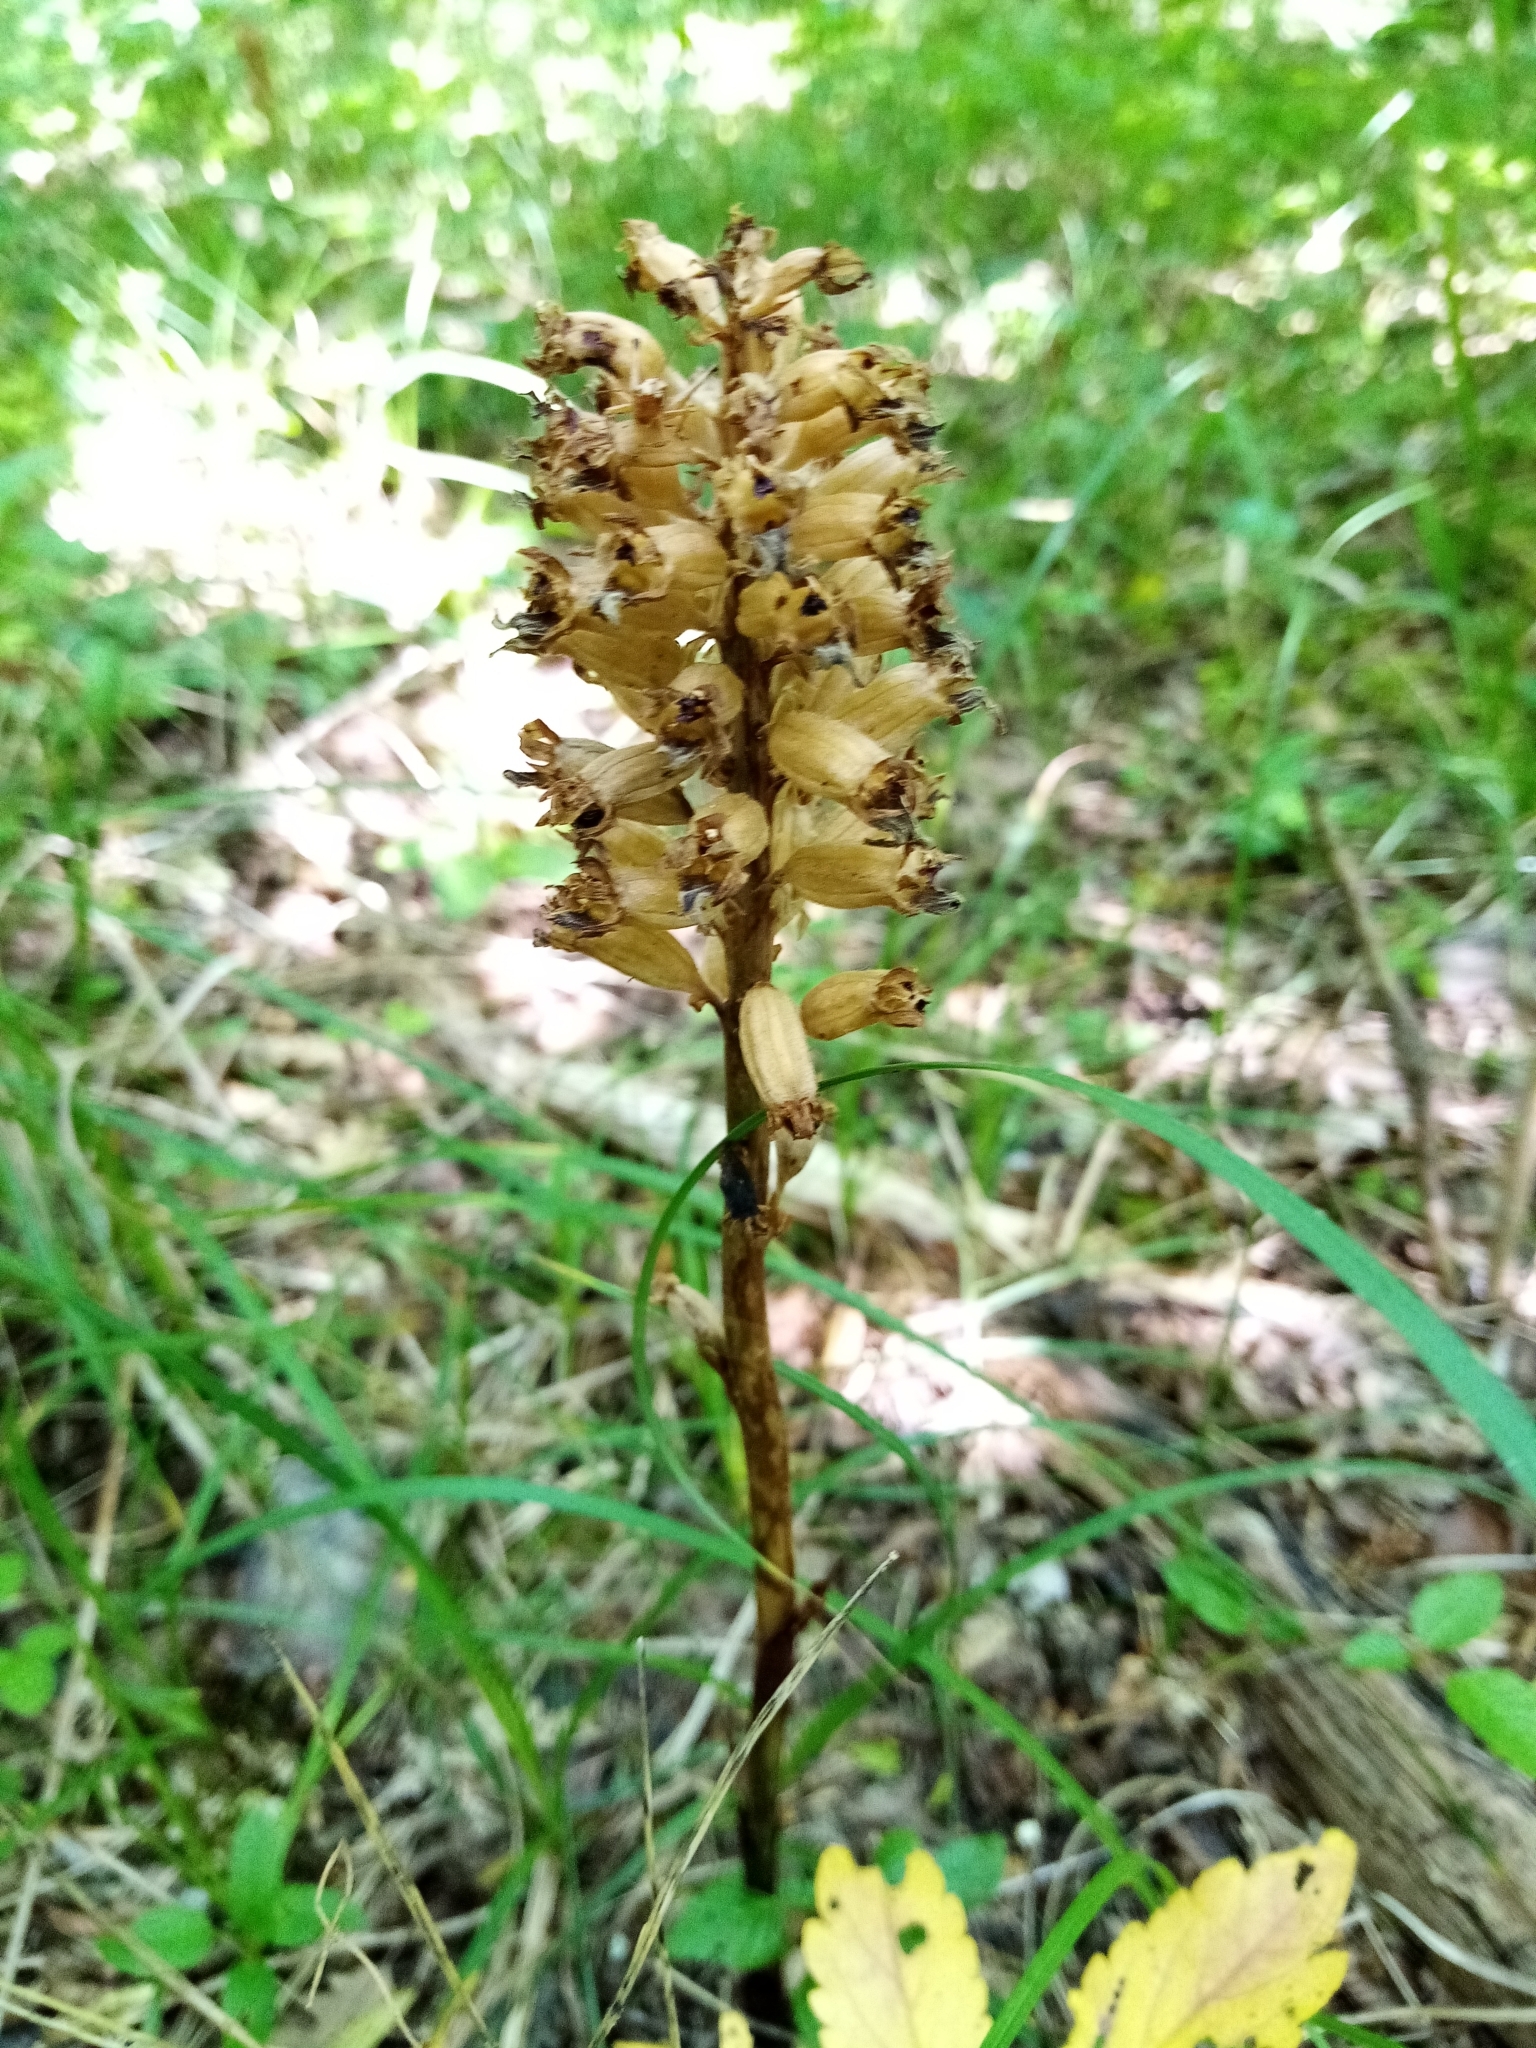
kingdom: Plantae
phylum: Tracheophyta
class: Liliopsida
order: Asparagales
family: Orchidaceae
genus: Neottia
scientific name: Neottia nidus-avis
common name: Bird's-nest orchid
